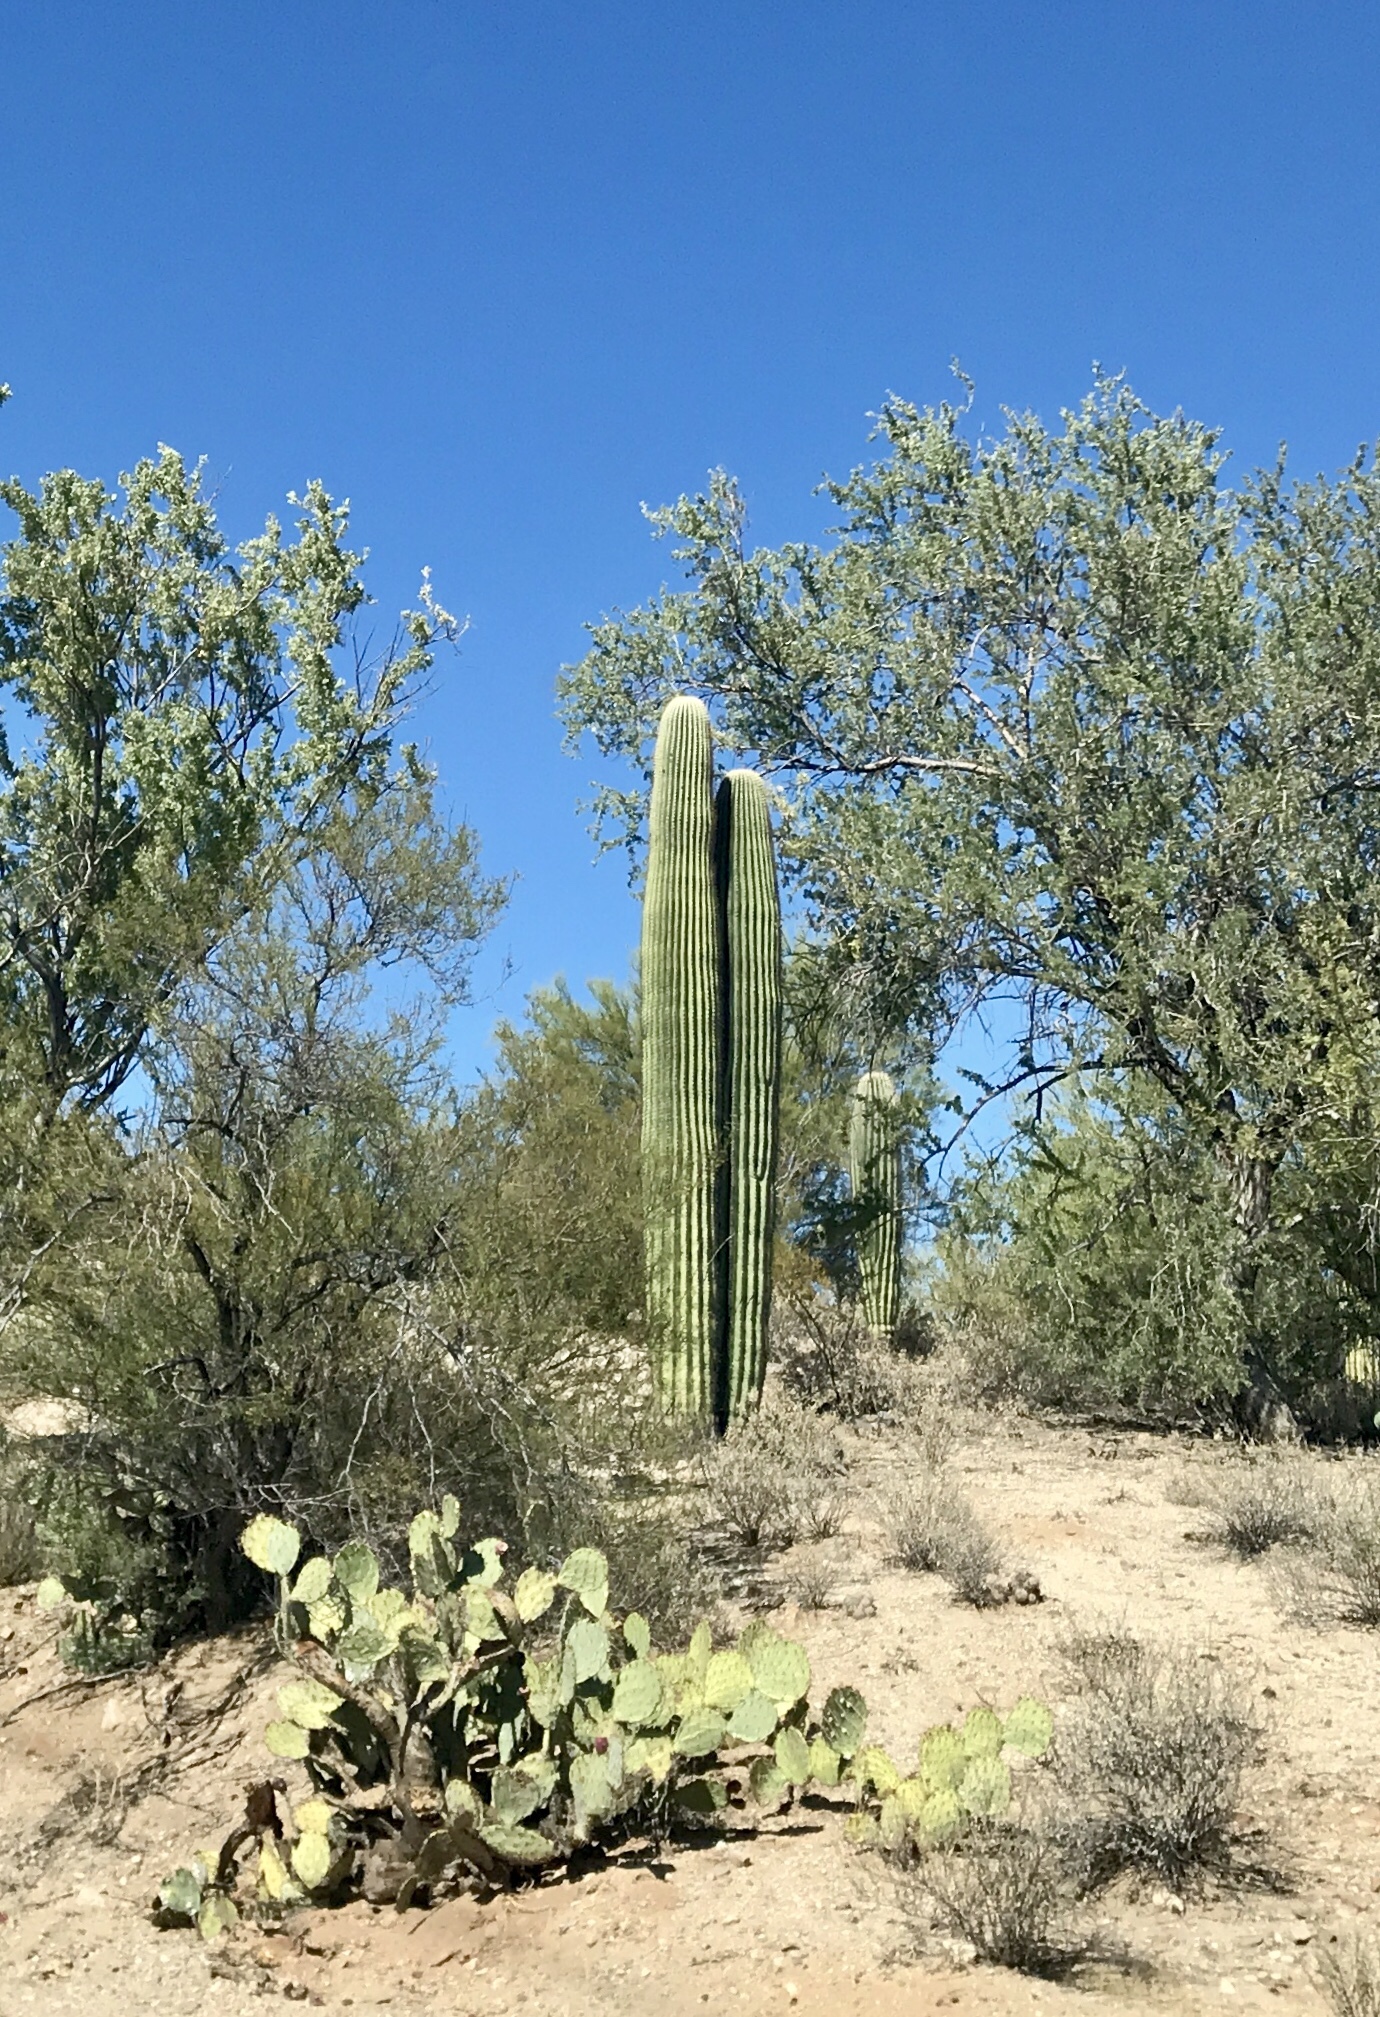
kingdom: Plantae
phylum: Tracheophyta
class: Magnoliopsida
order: Caryophyllales
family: Cactaceae
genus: Carnegiea
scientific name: Carnegiea gigantea
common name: Saguaro
